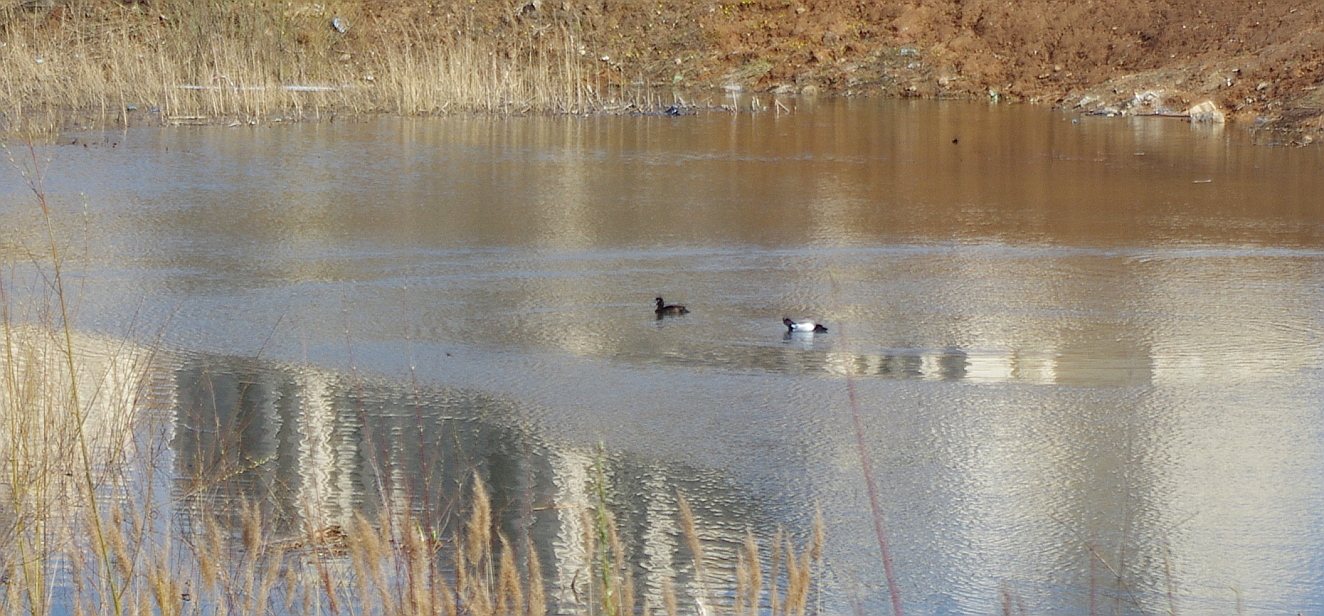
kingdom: Animalia
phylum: Chordata
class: Aves
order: Anseriformes
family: Anatidae
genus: Aythya
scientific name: Aythya fuligula
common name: Tufted duck
